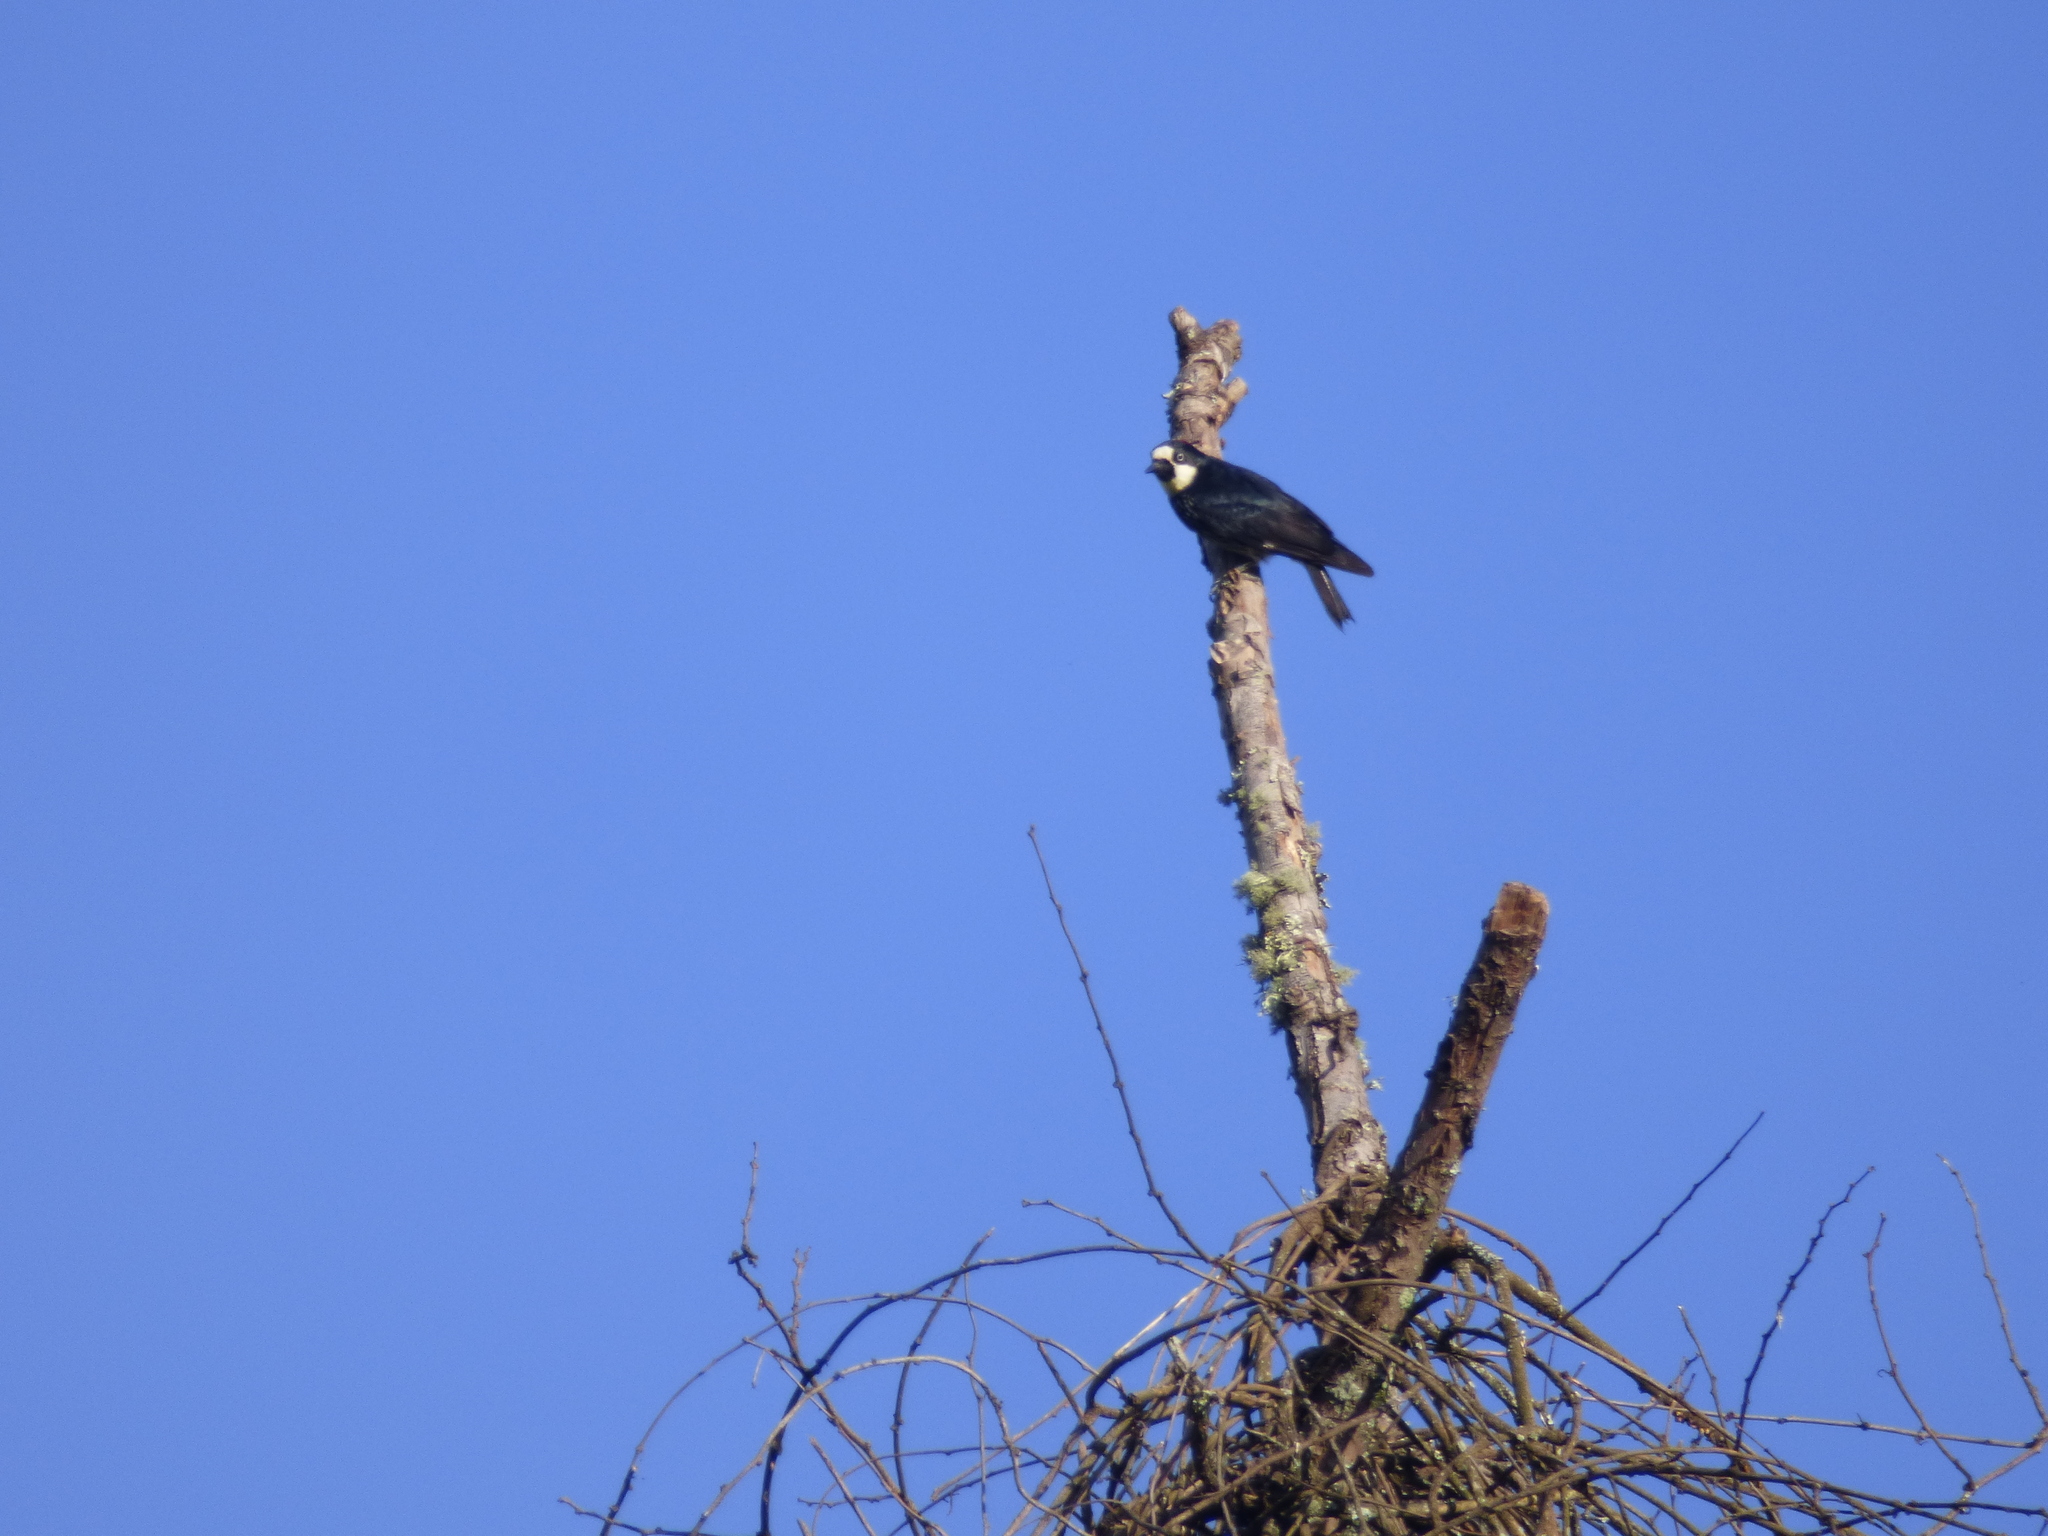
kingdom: Animalia
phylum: Chordata
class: Aves
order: Piciformes
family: Picidae
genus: Melanerpes
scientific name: Melanerpes formicivorus
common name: Acorn woodpecker
